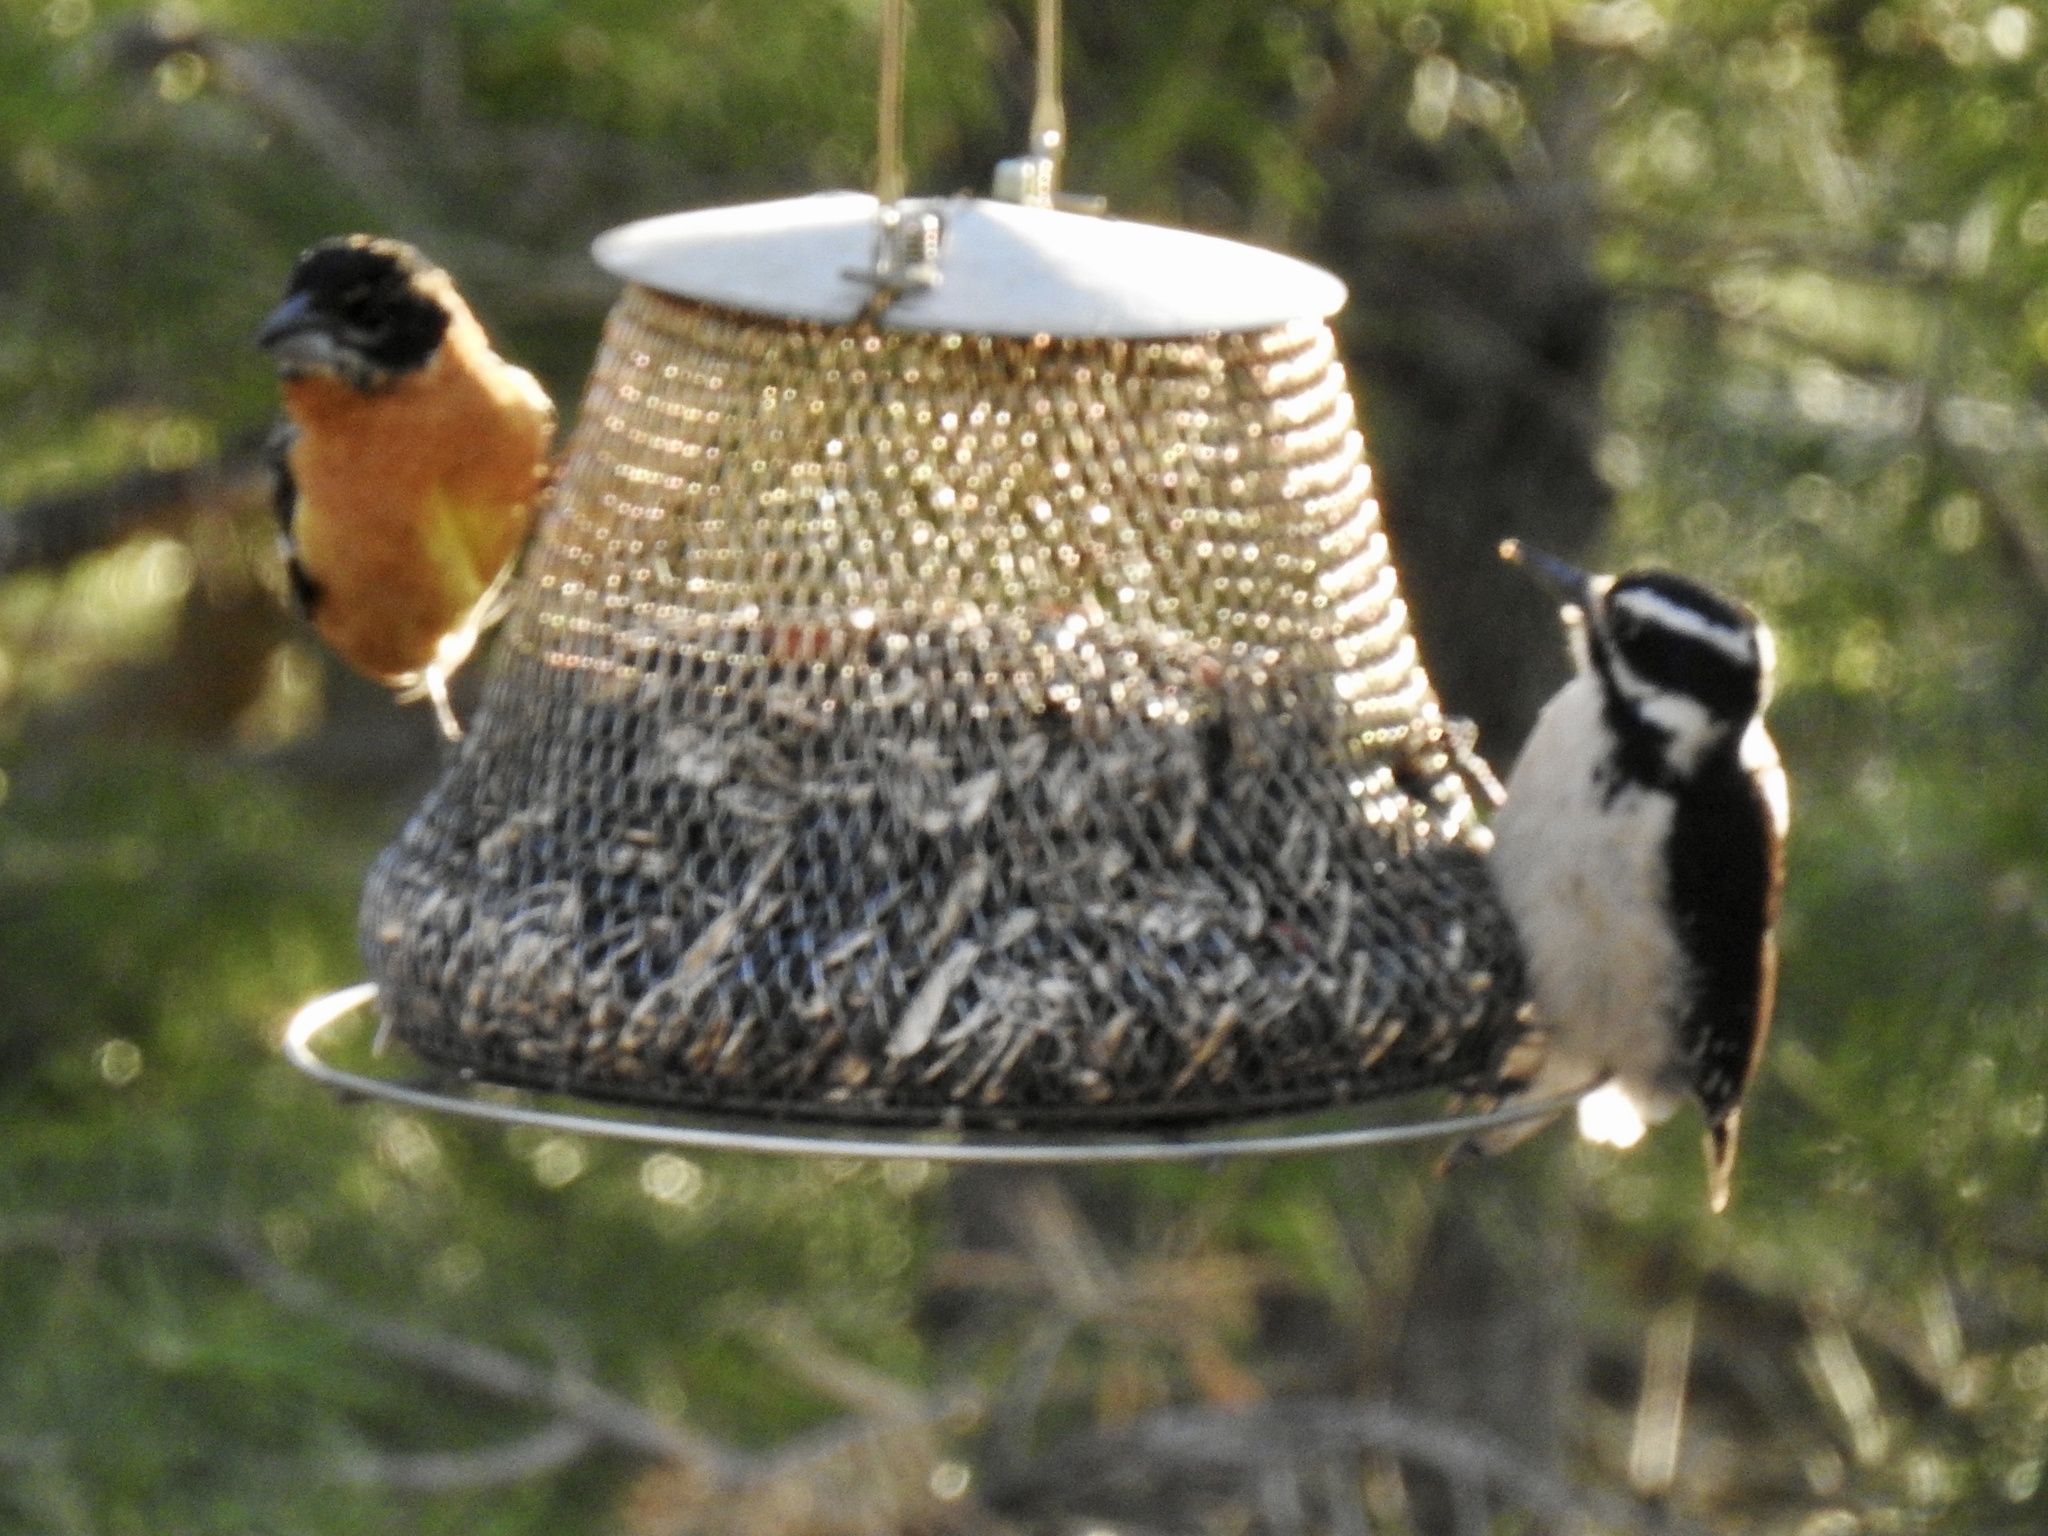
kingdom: Animalia
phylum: Chordata
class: Aves
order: Passeriformes
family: Cardinalidae
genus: Pheucticus
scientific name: Pheucticus melanocephalus
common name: Black-headed grosbeak
